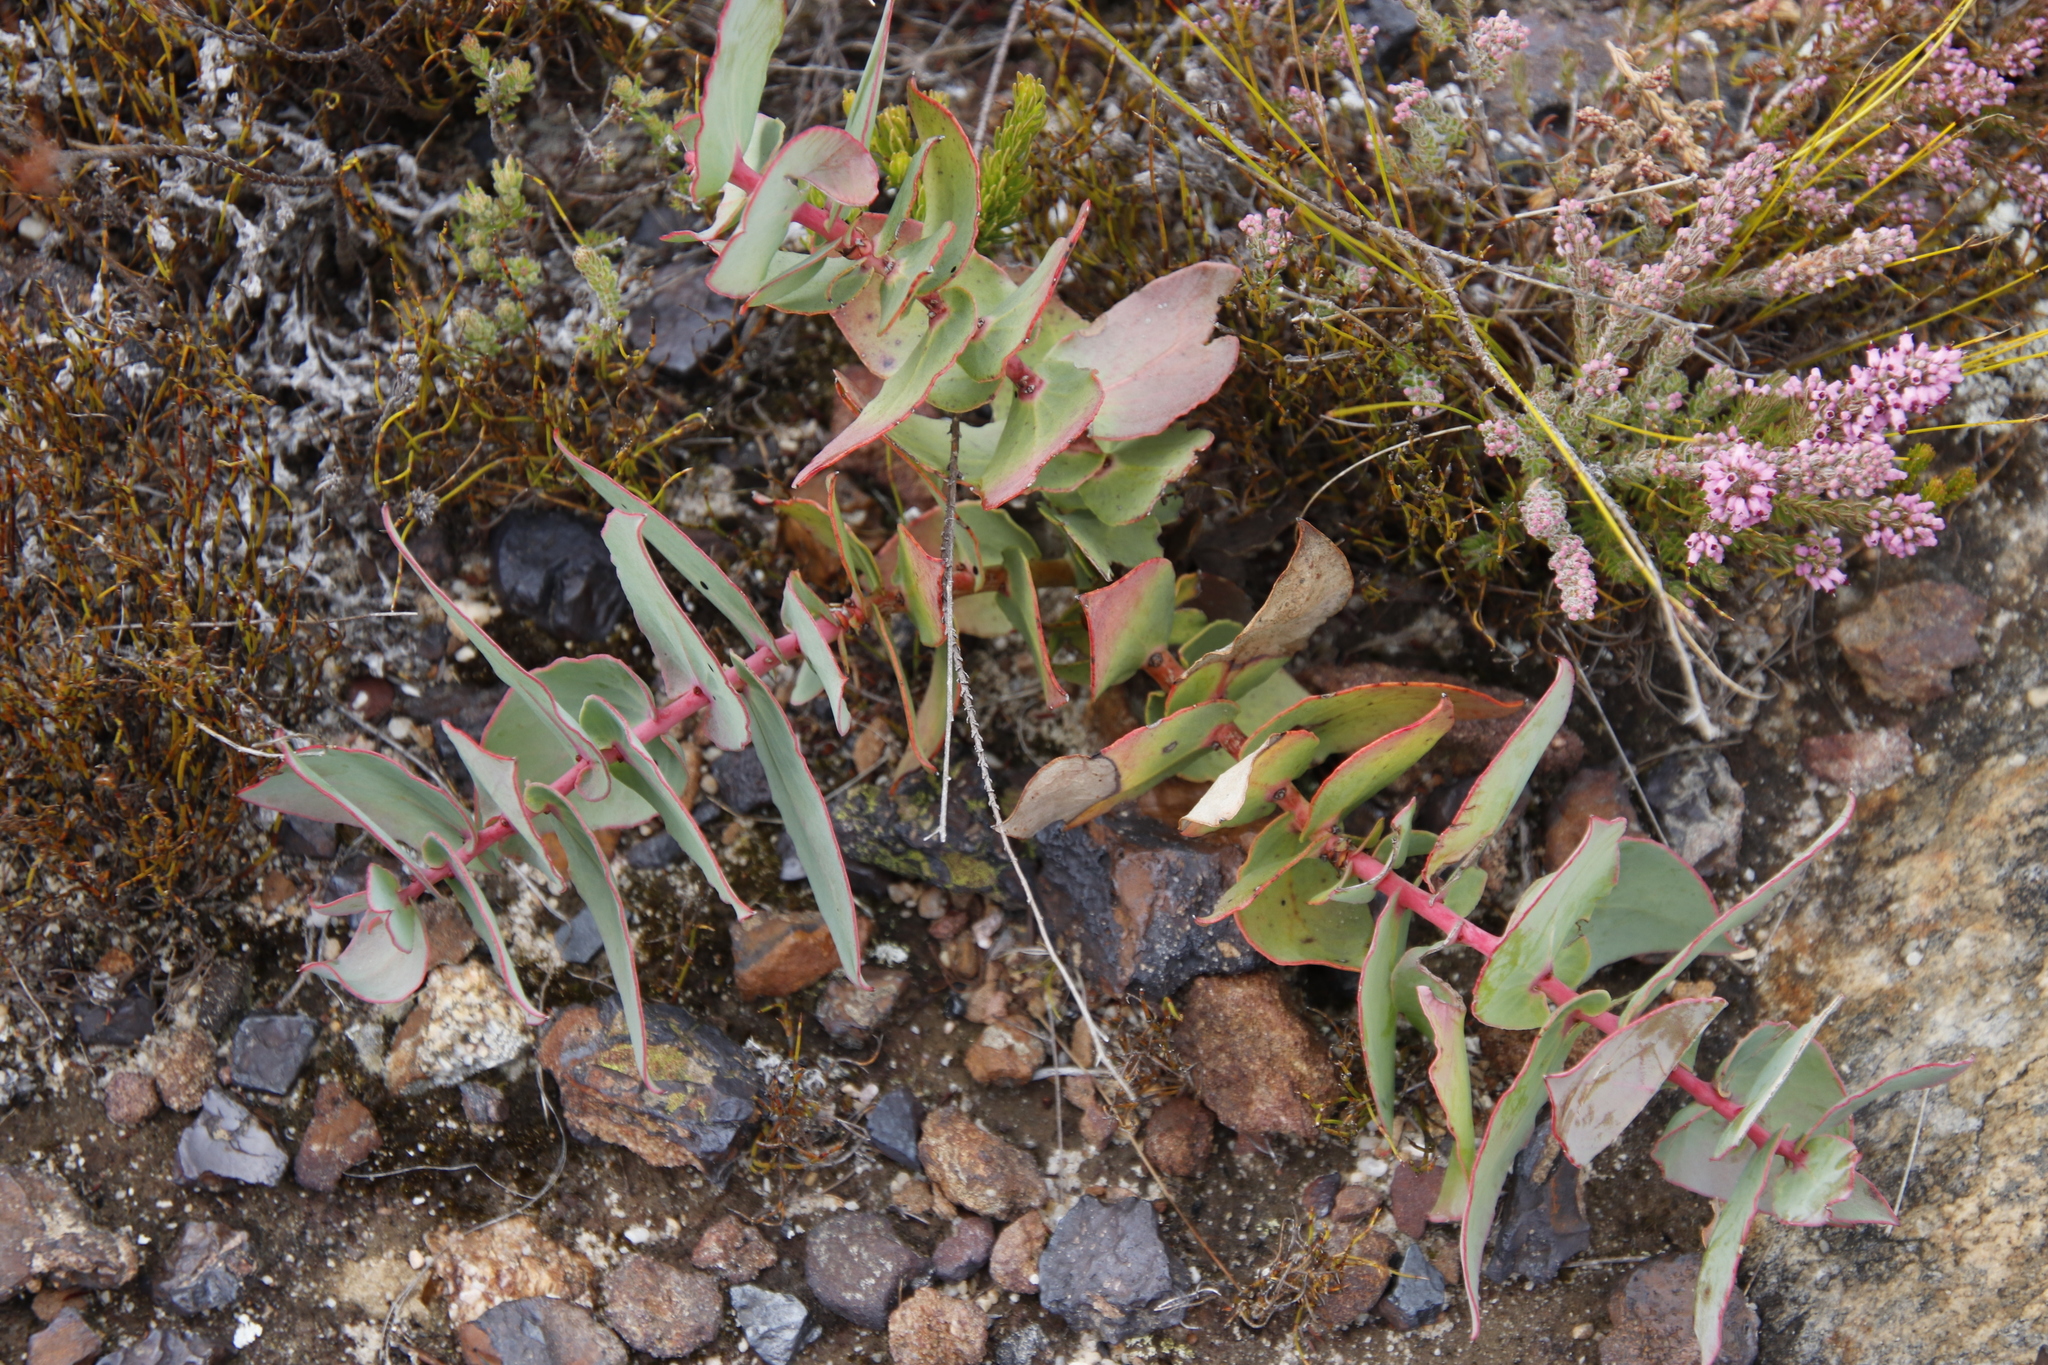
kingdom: Plantae
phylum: Tracheophyta
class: Magnoliopsida
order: Proteales
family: Proteaceae
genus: Protea
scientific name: Protea amplexicaulis
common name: Clasping-leaf sugarbush
